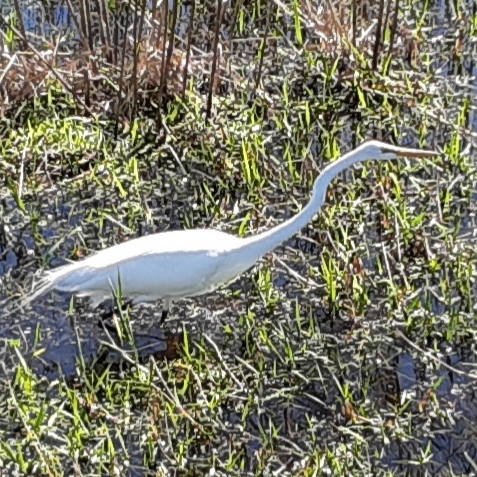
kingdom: Animalia
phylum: Chordata
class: Aves
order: Pelecaniformes
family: Ardeidae
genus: Ardea
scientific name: Ardea alba
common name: Great egret
